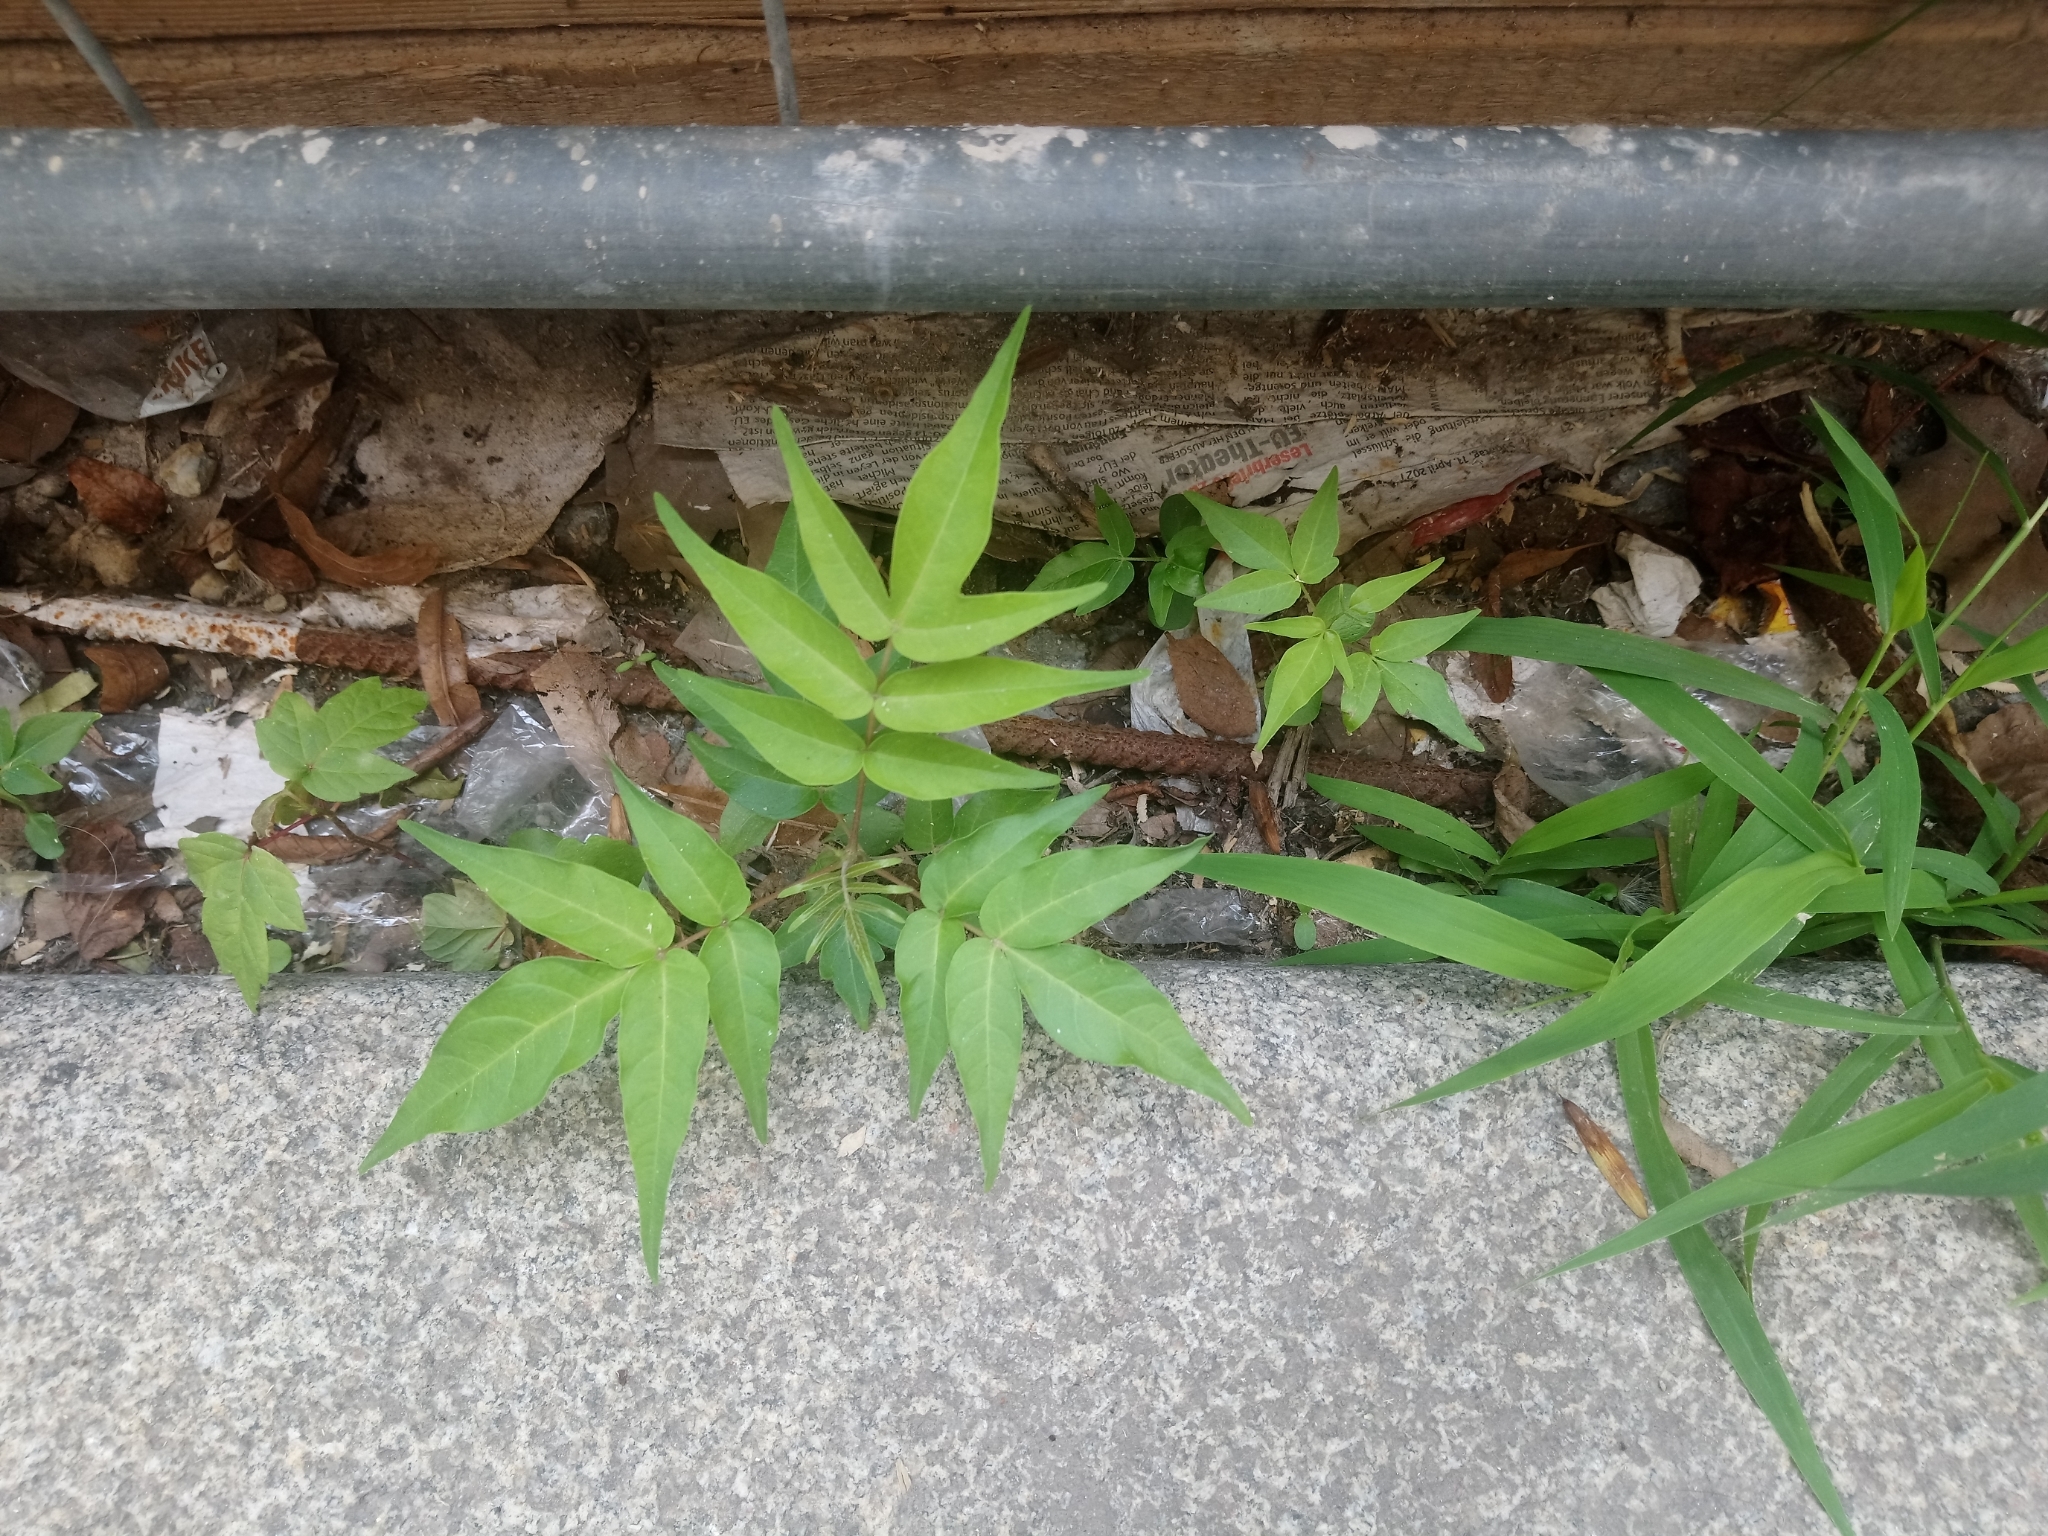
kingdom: Plantae
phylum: Tracheophyta
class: Magnoliopsida
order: Sapindales
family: Simaroubaceae
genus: Ailanthus
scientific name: Ailanthus altissima
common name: Tree-of-heaven
